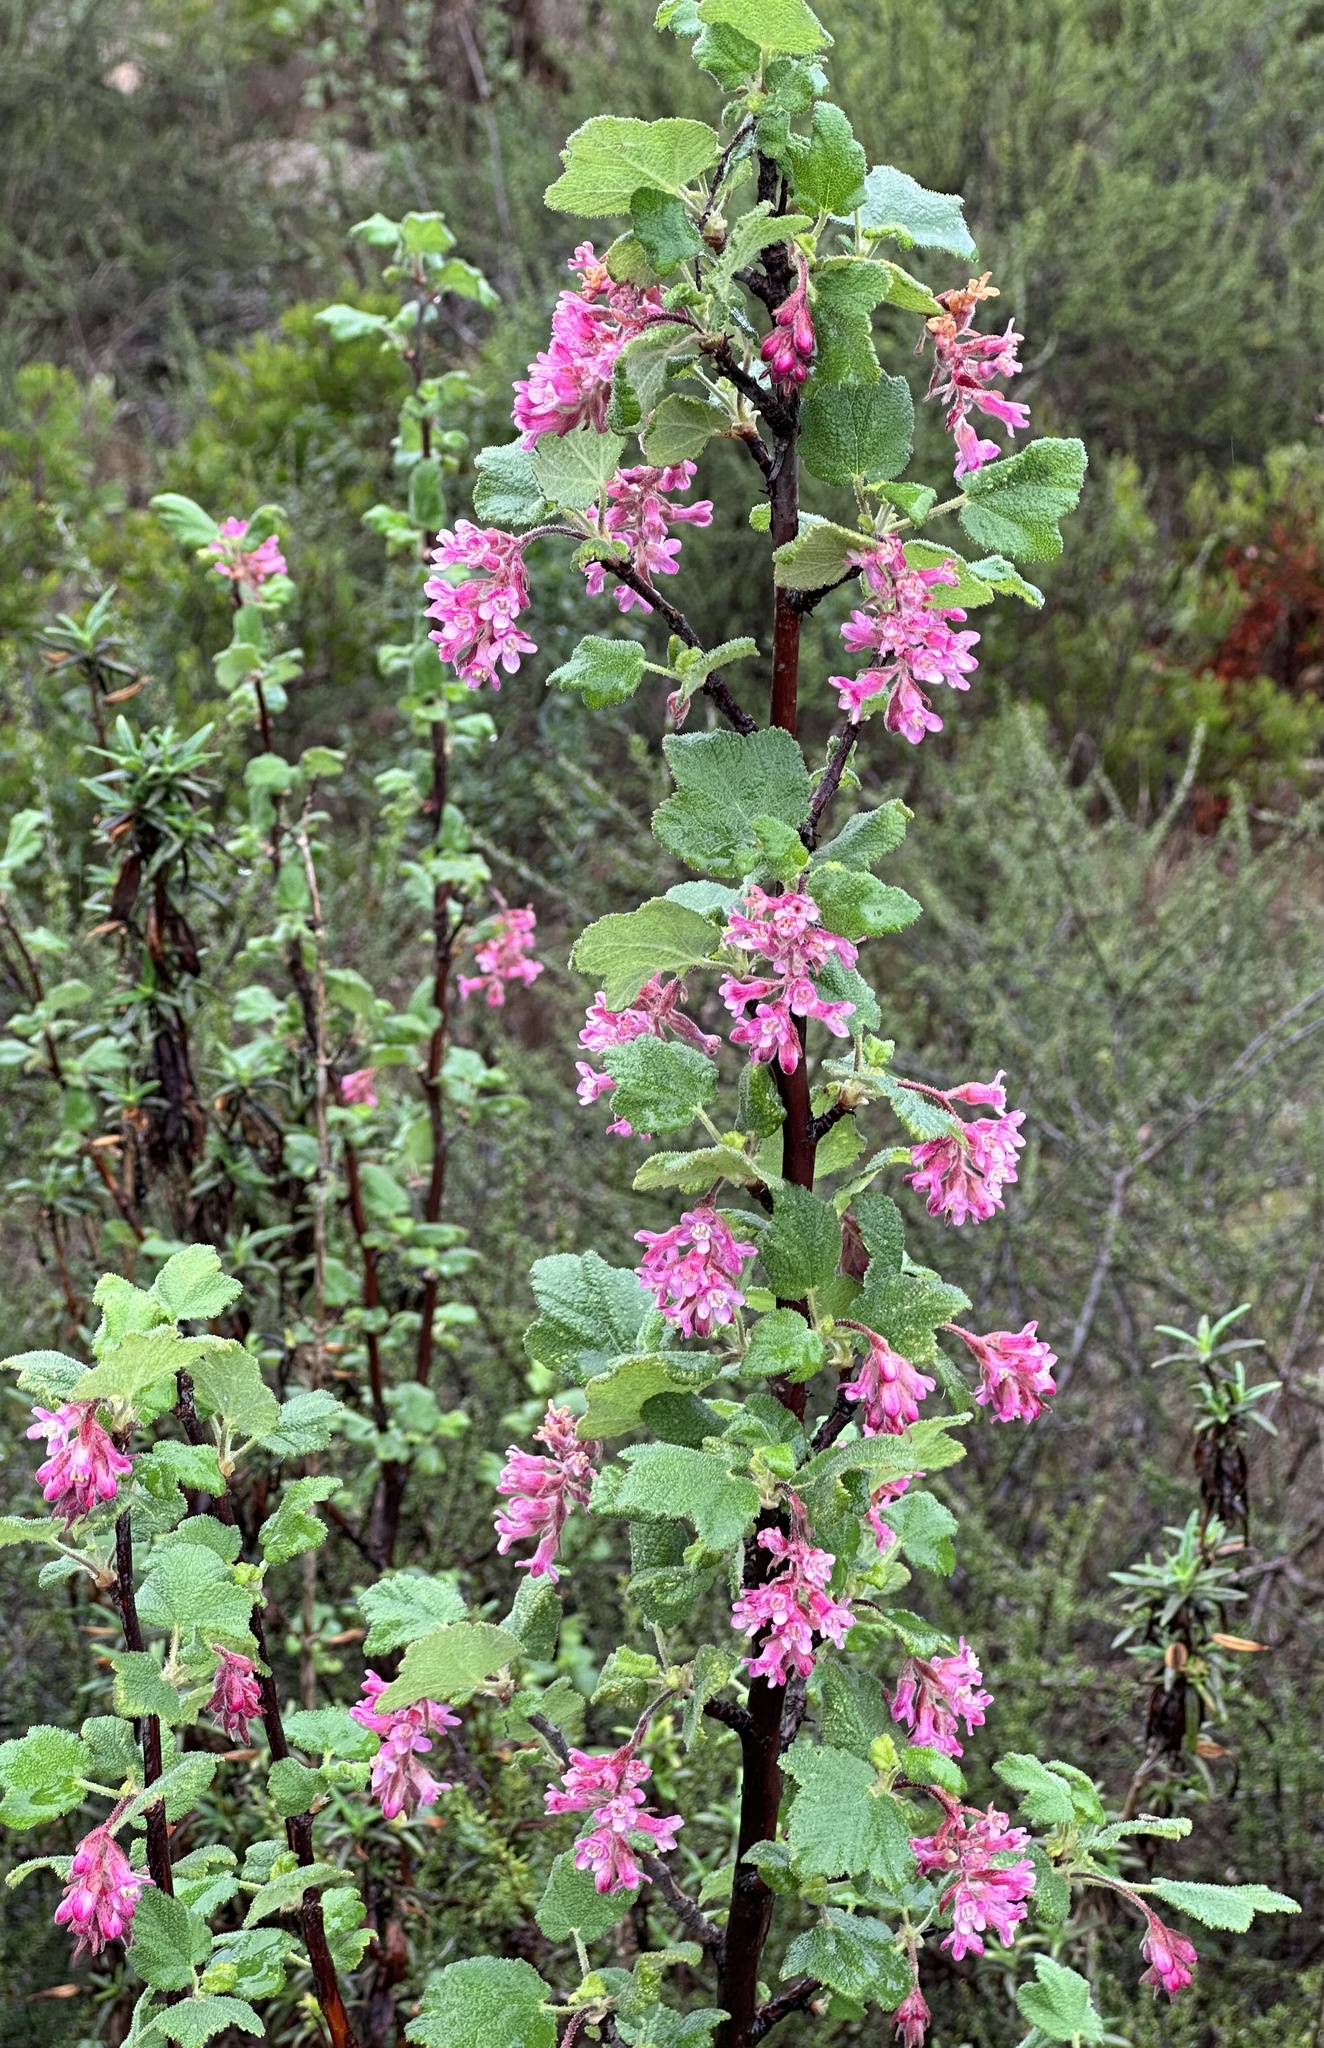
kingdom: Plantae
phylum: Tracheophyta
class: Magnoliopsida
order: Saxifragales
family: Grossulariaceae
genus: Ribes
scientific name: Ribes malvaceum
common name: Chaparral currant
